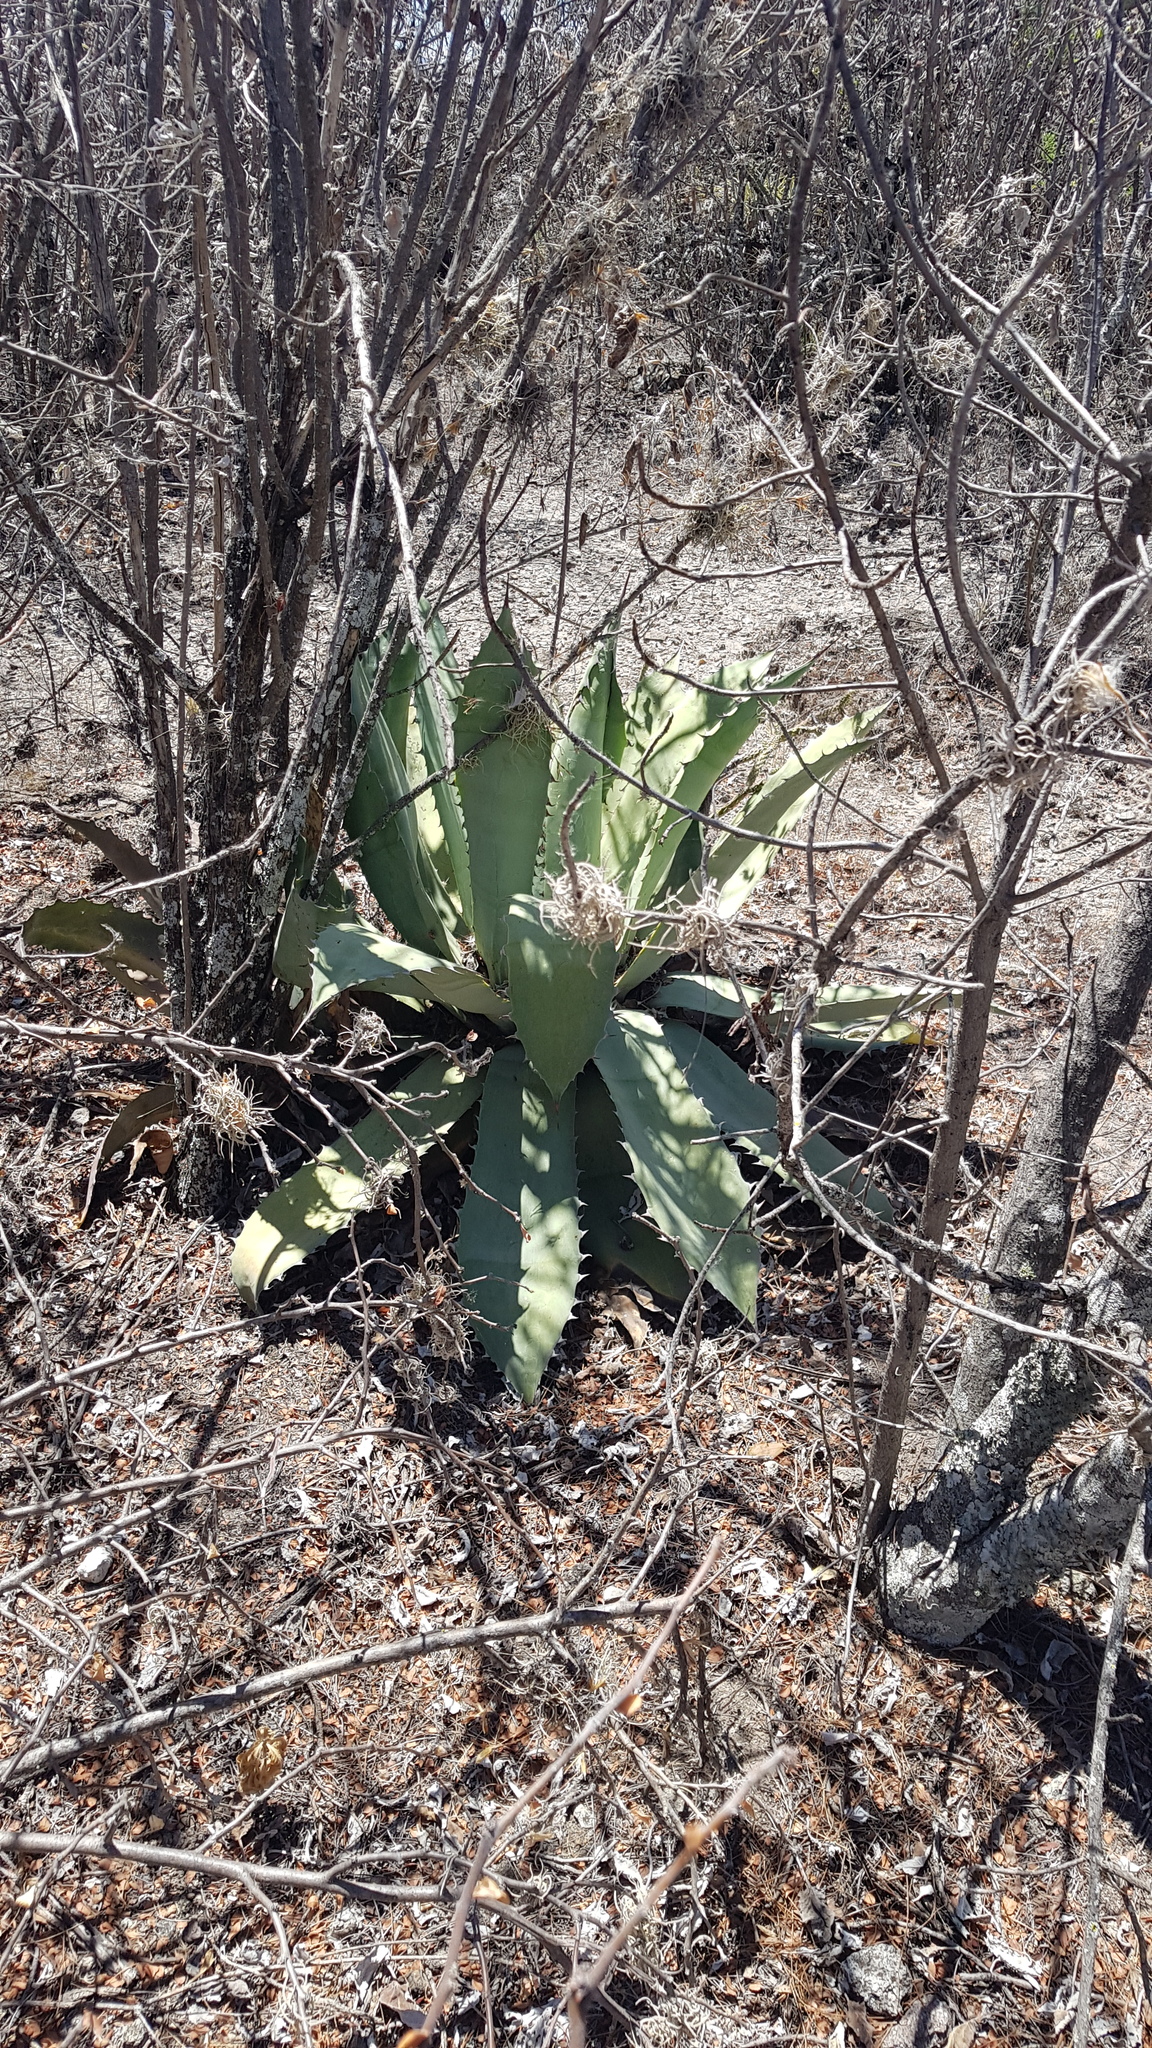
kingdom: Plantae
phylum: Tracheophyta
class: Liliopsida
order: Asparagales
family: Asparagaceae
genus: Agave
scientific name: Agave seemanniana
